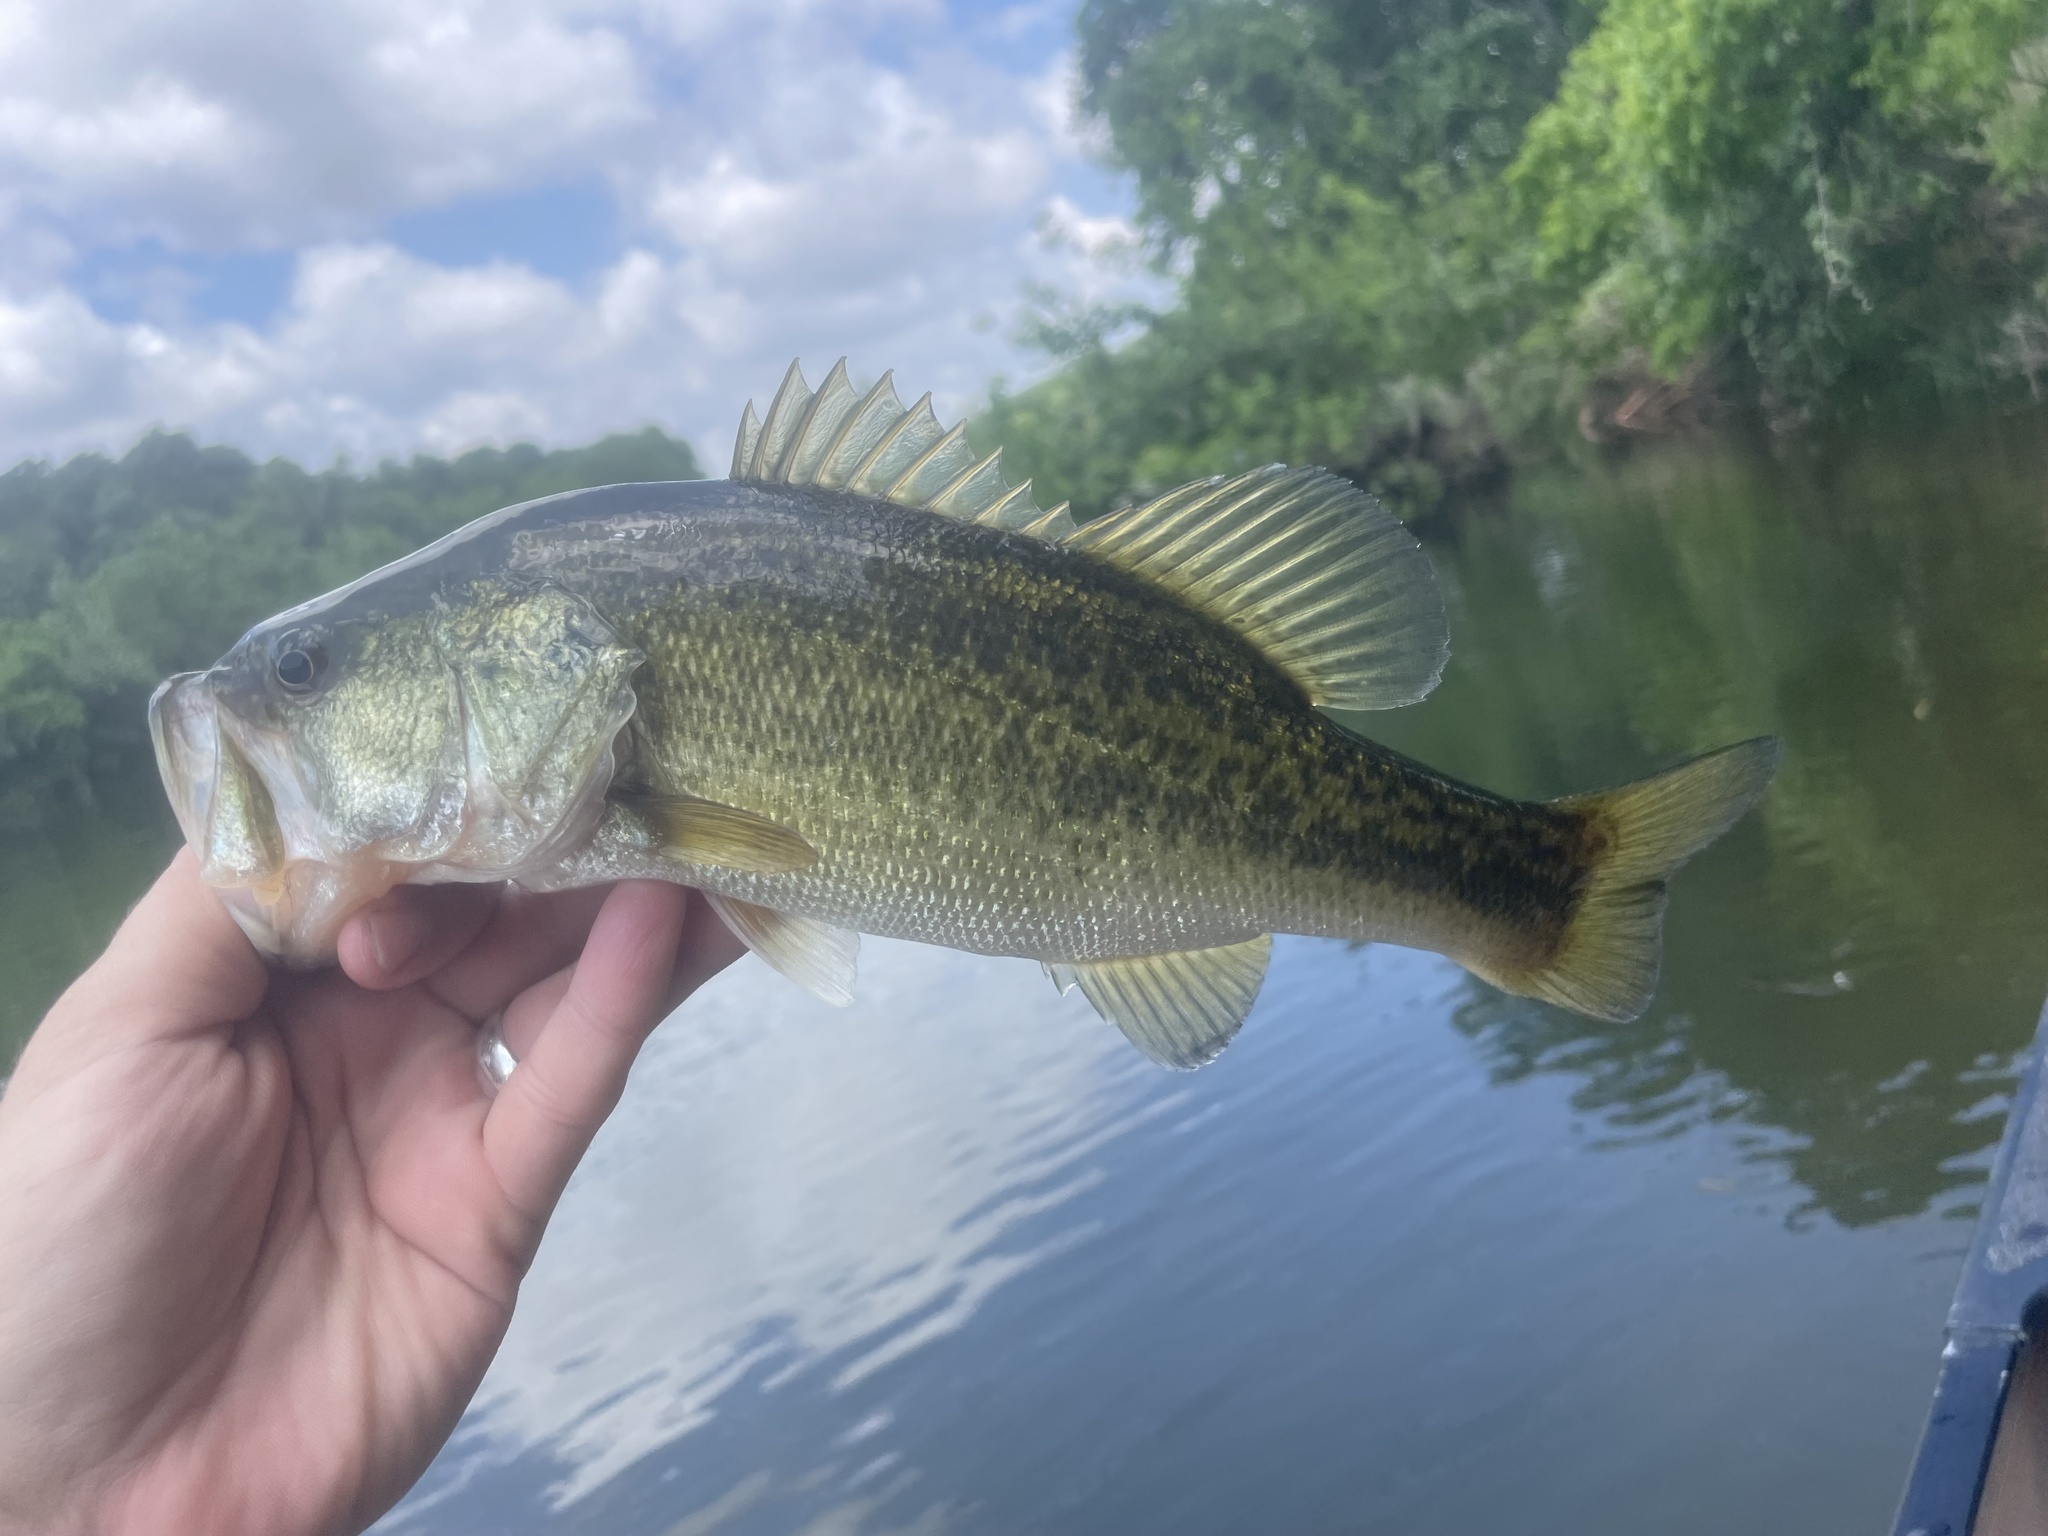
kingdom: Animalia
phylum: Chordata
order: Perciformes
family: Centrarchidae
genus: Micropterus
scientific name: Micropterus
